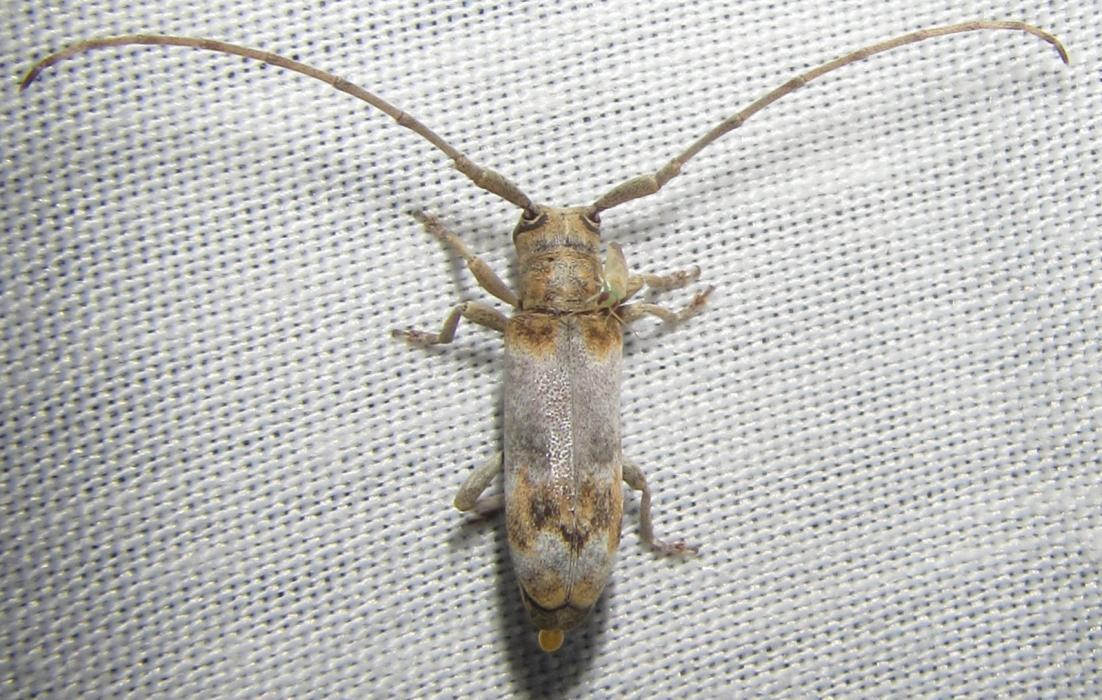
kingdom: Animalia
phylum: Arthropoda
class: Insecta
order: Coleoptera
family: Cerambycidae
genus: Eunidia
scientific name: Eunidia subfasciata
